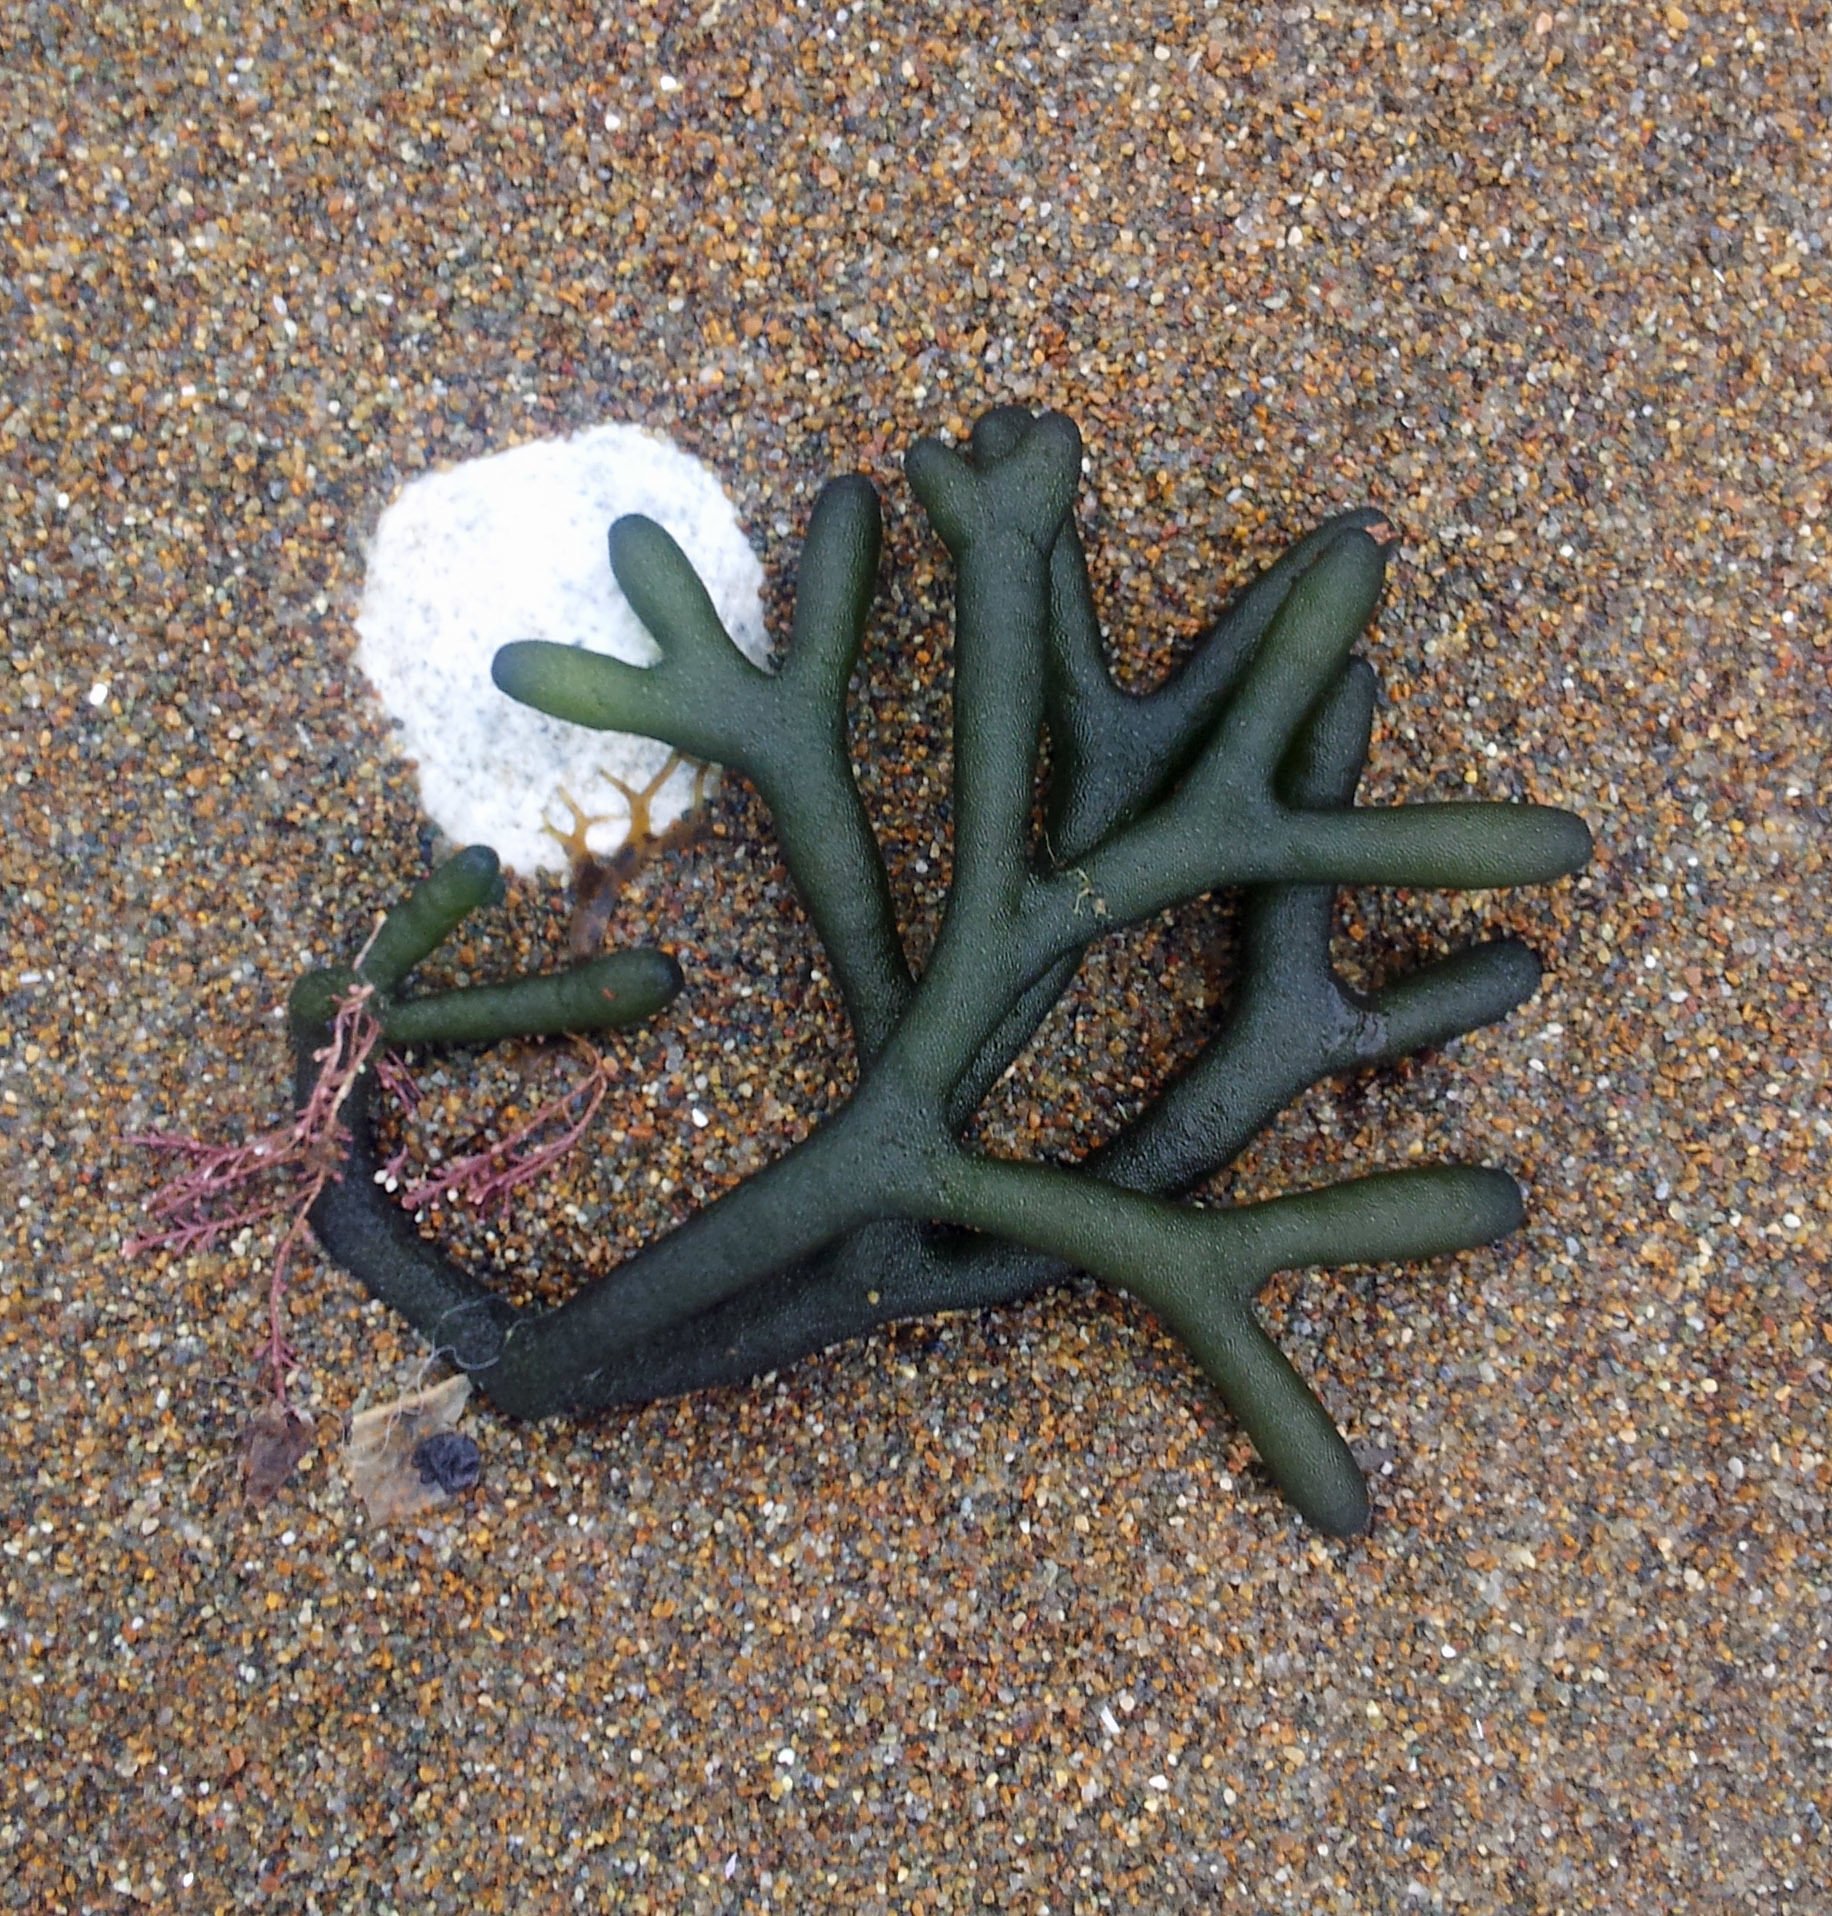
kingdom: Plantae
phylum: Chlorophyta
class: Ulvophyceae
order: Bryopsidales
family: Codiaceae
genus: Codium
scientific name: Codium fragile
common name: Dead man's fingers
